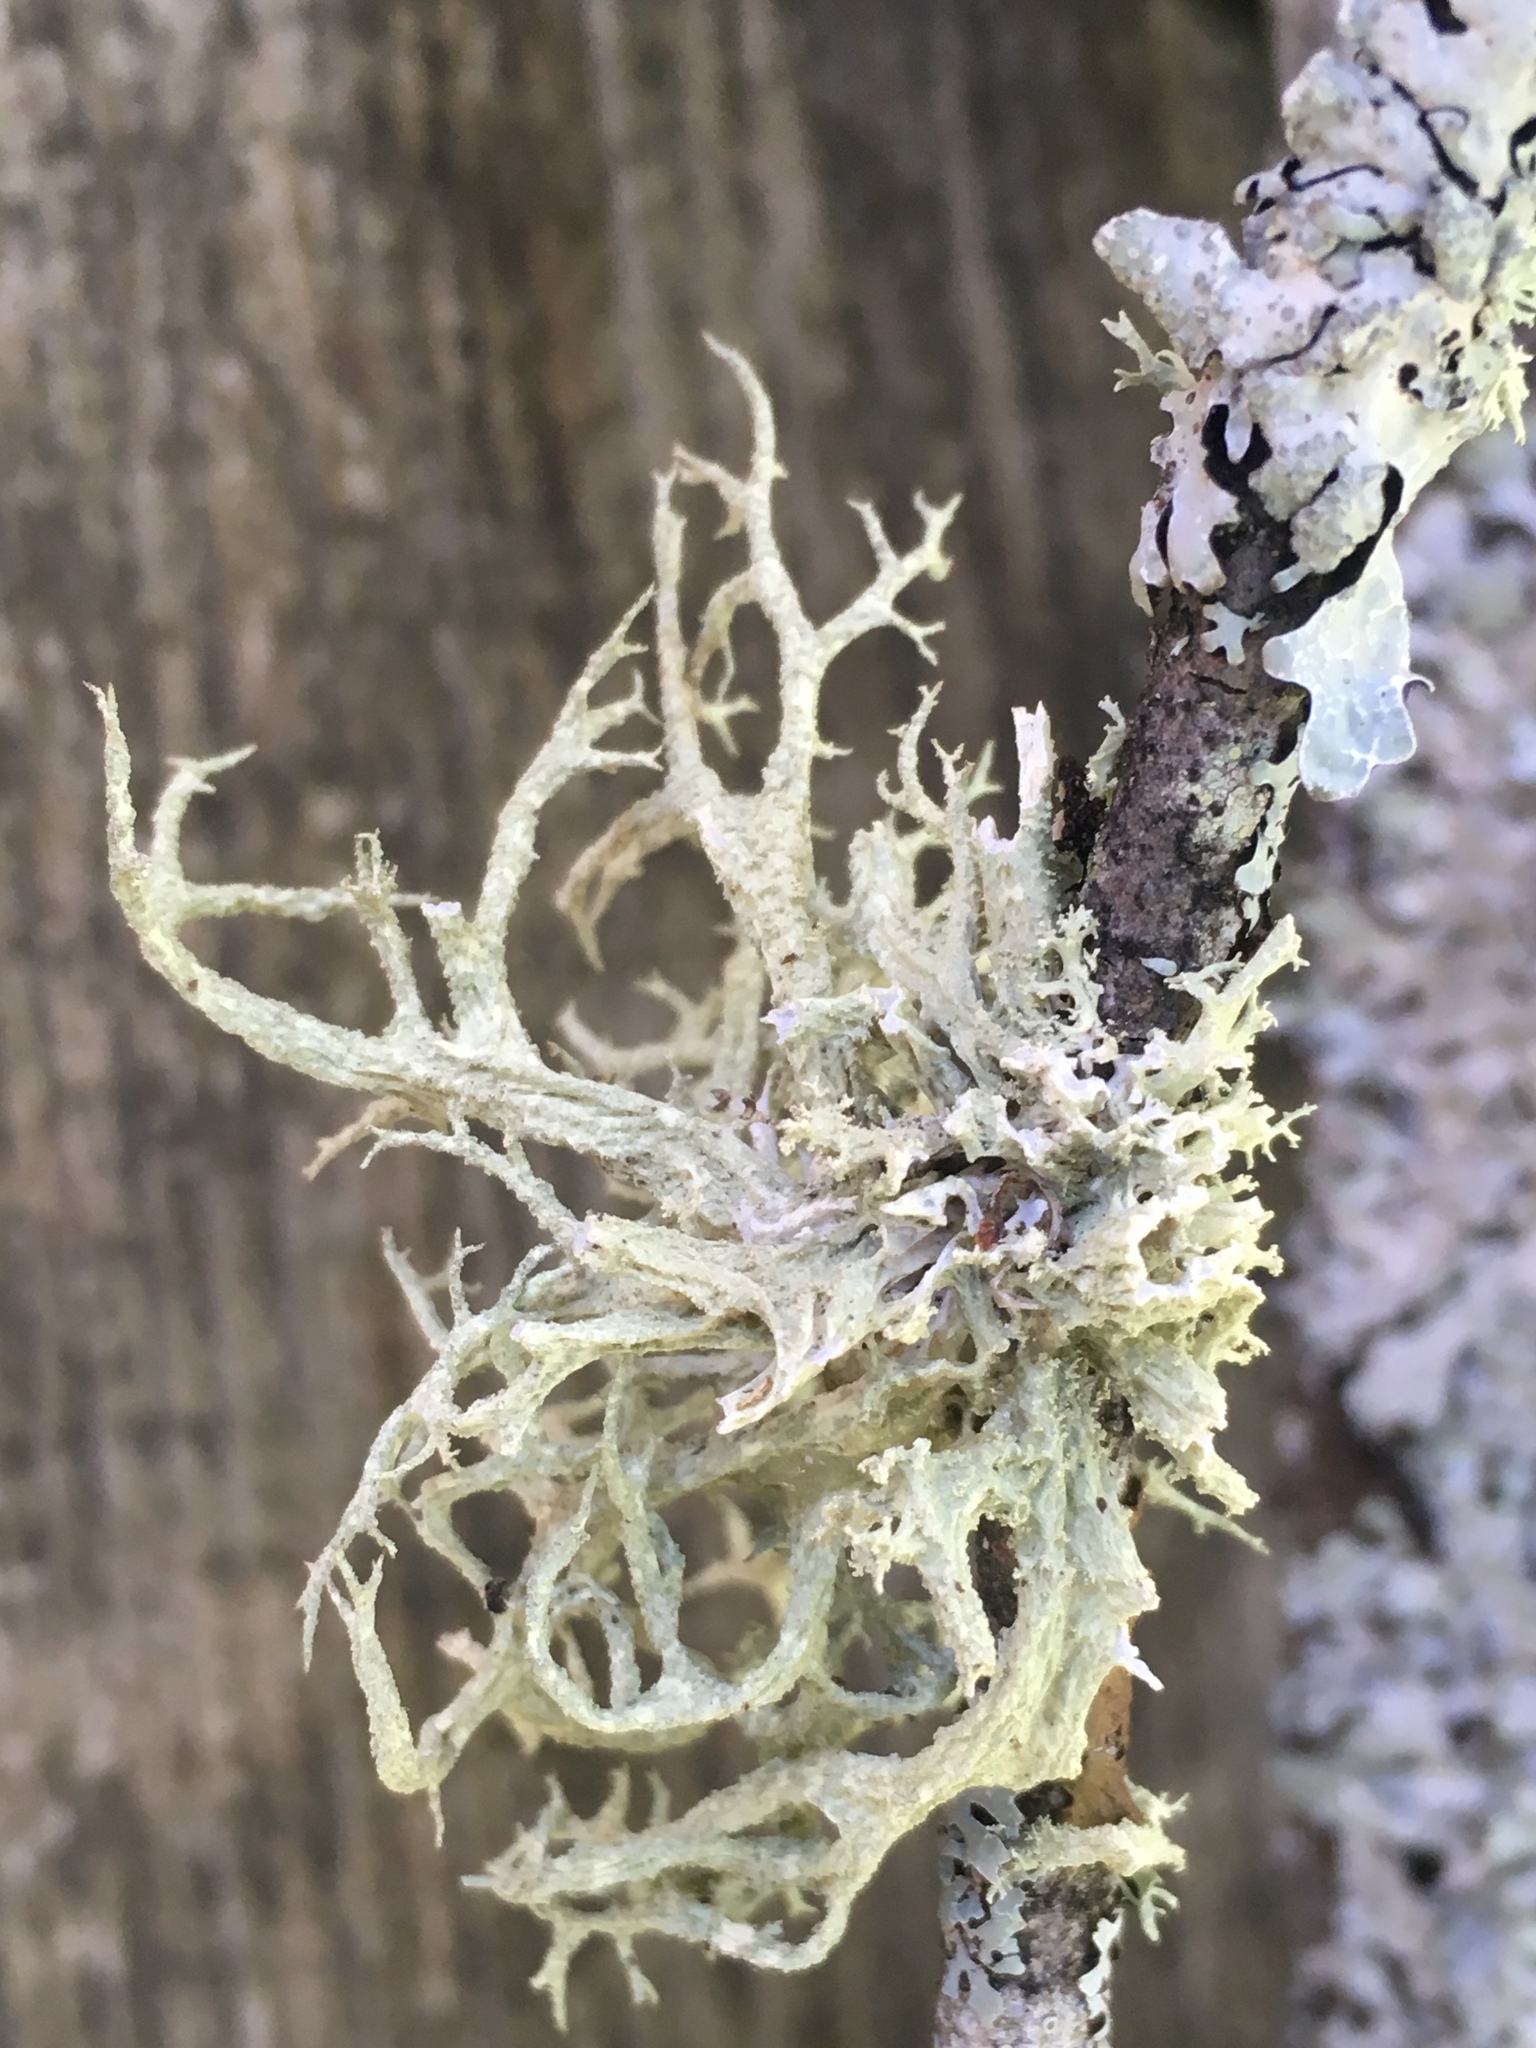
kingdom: Fungi
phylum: Ascomycota
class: Lecanoromycetes
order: Lecanorales
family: Parmeliaceae
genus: Evernia
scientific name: Evernia mesomorpha
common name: Boreal oak moss lichen
